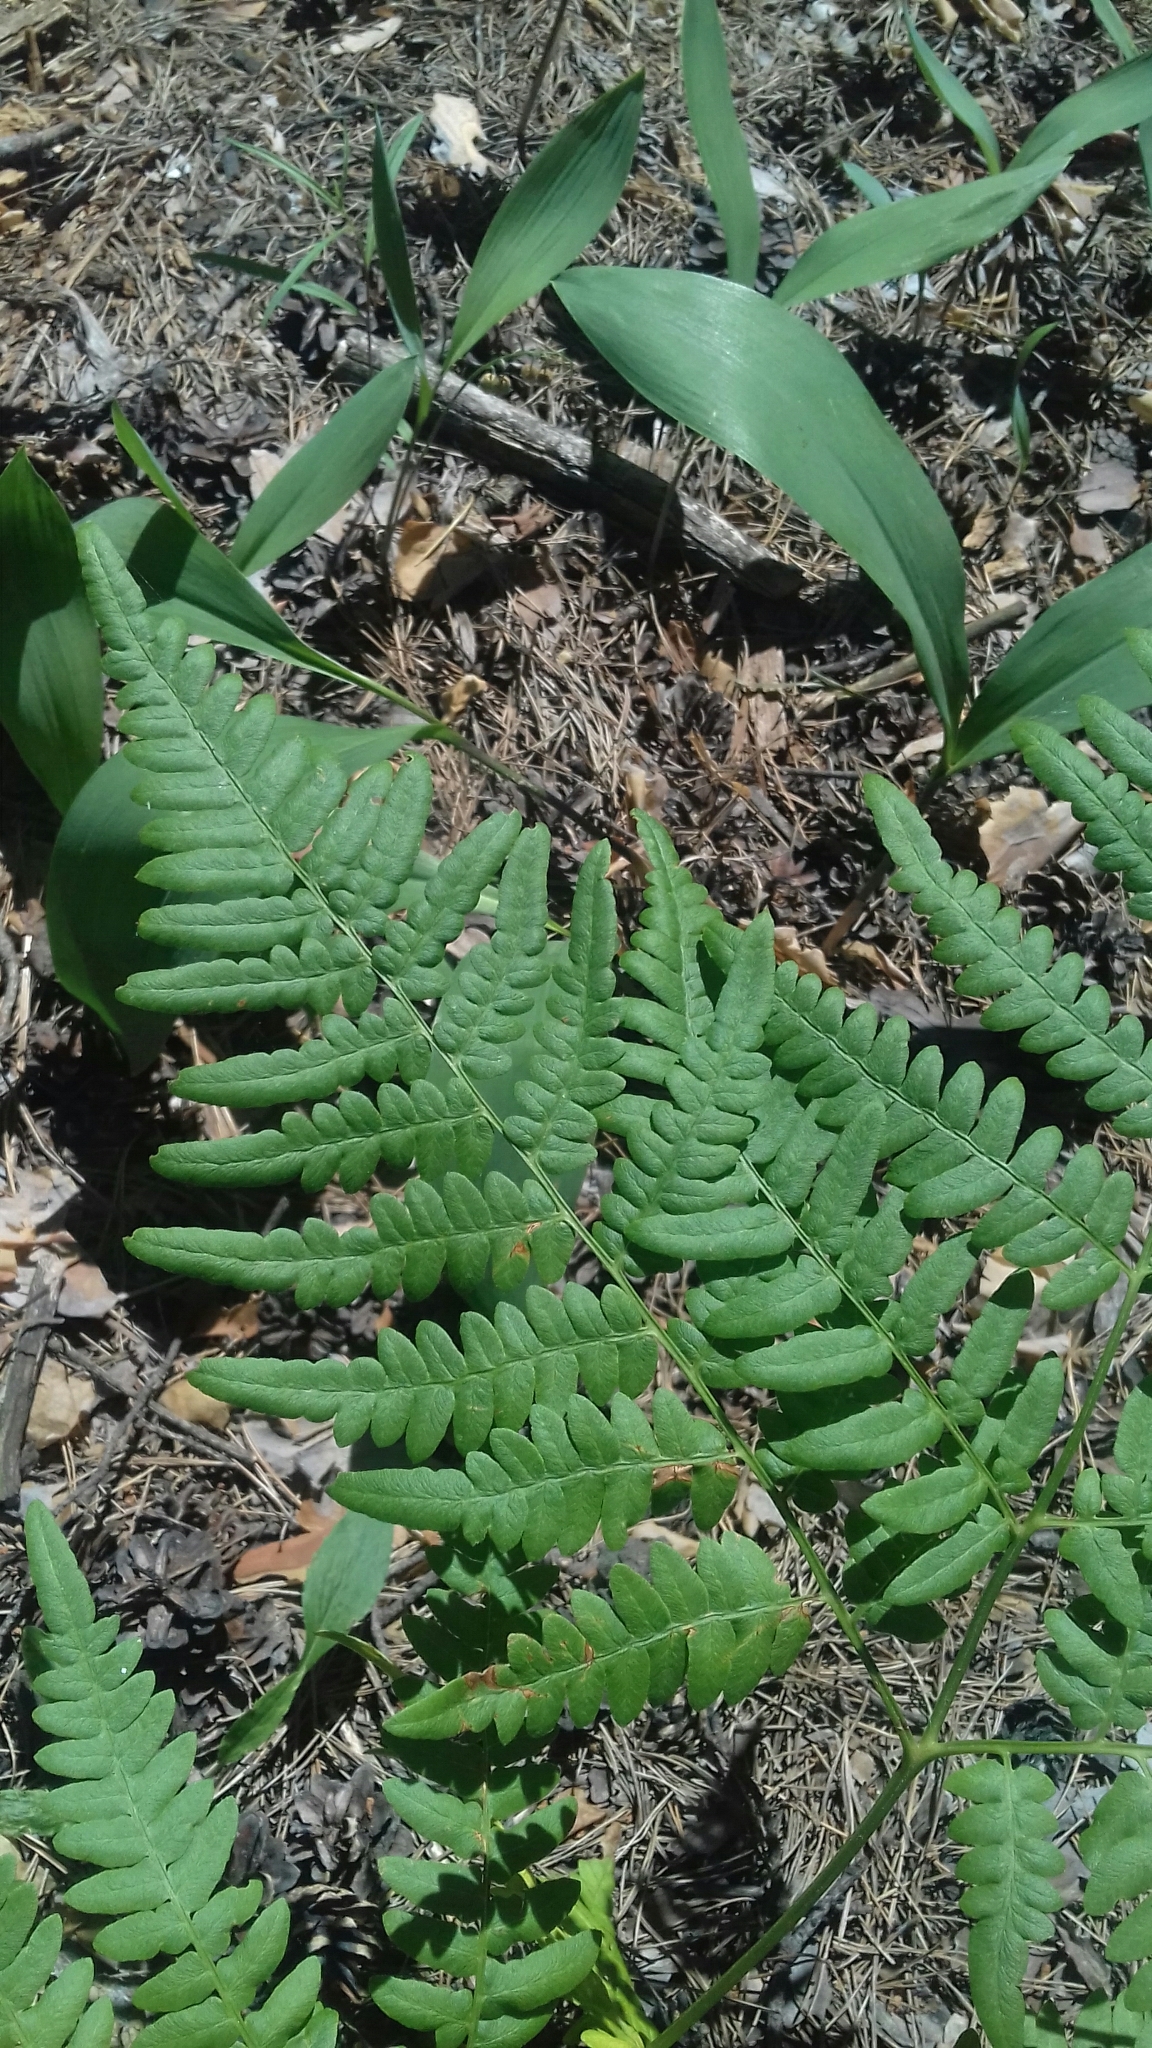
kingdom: Plantae
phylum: Tracheophyta
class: Polypodiopsida
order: Polypodiales
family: Dennstaedtiaceae
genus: Pteridium
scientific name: Pteridium aquilinum
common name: Bracken
